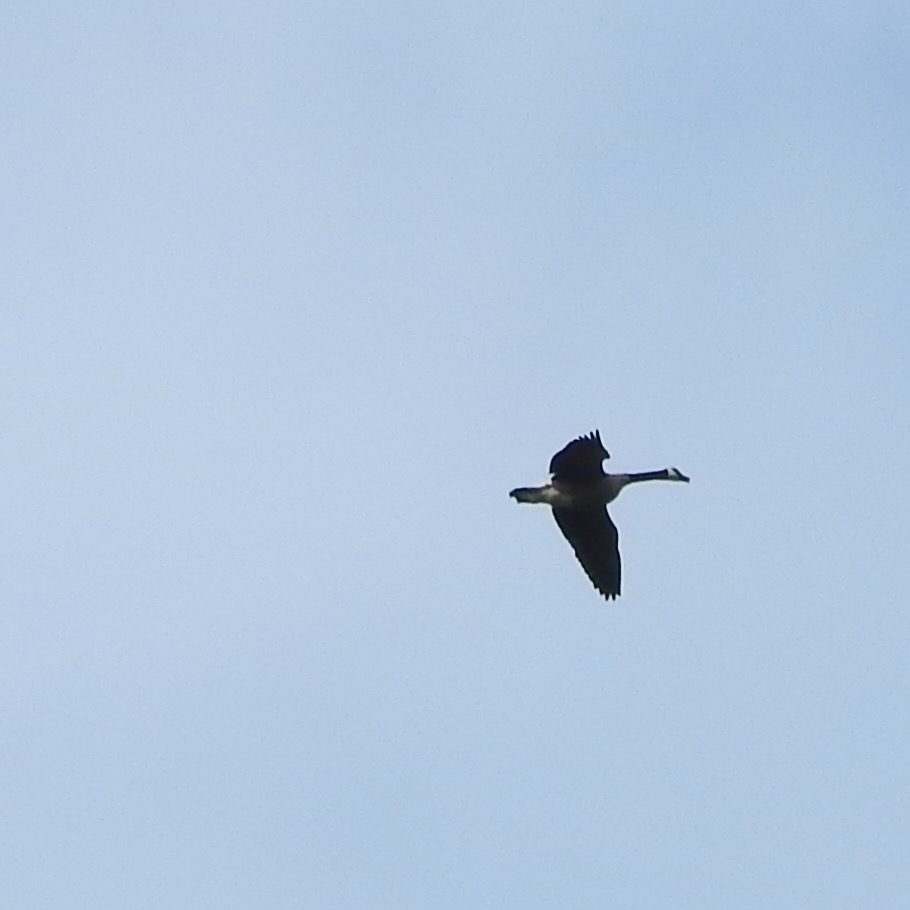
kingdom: Animalia
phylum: Chordata
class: Aves
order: Anseriformes
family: Anatidae
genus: Branta
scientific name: Branta canadensis
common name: Canada goose
